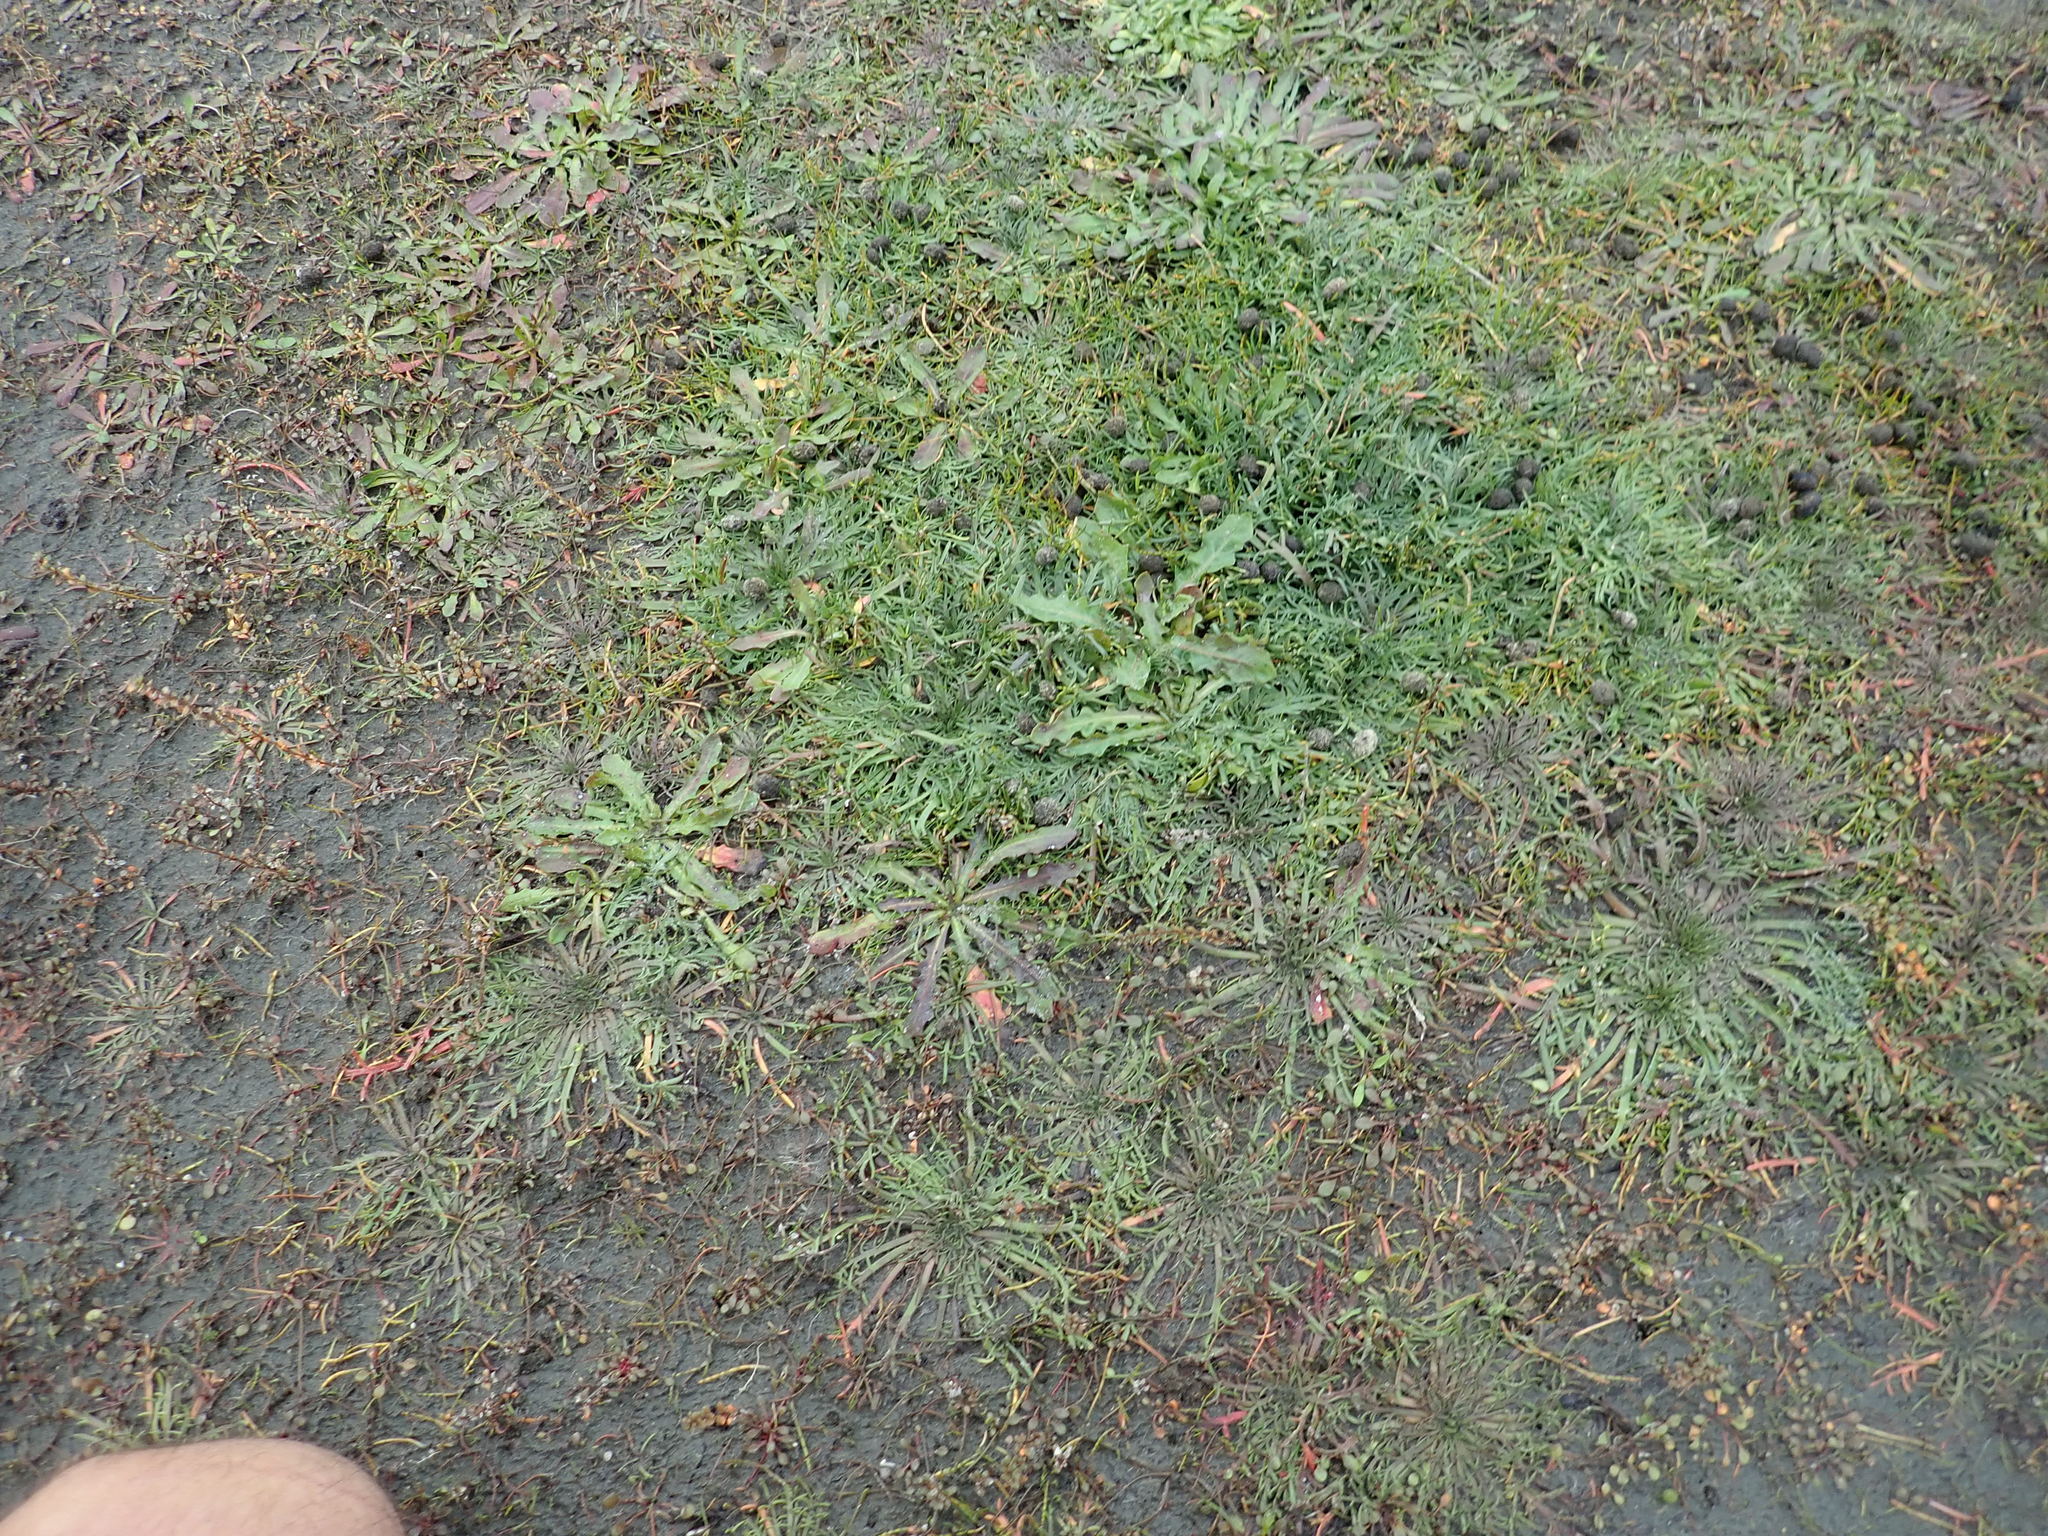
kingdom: Plantae
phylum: Tracheophyta
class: Magnoliopsida
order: Lamiales
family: Plantaginaceae
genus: Plantago
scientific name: Plantago coronopus
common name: Buck's-horn plantain
